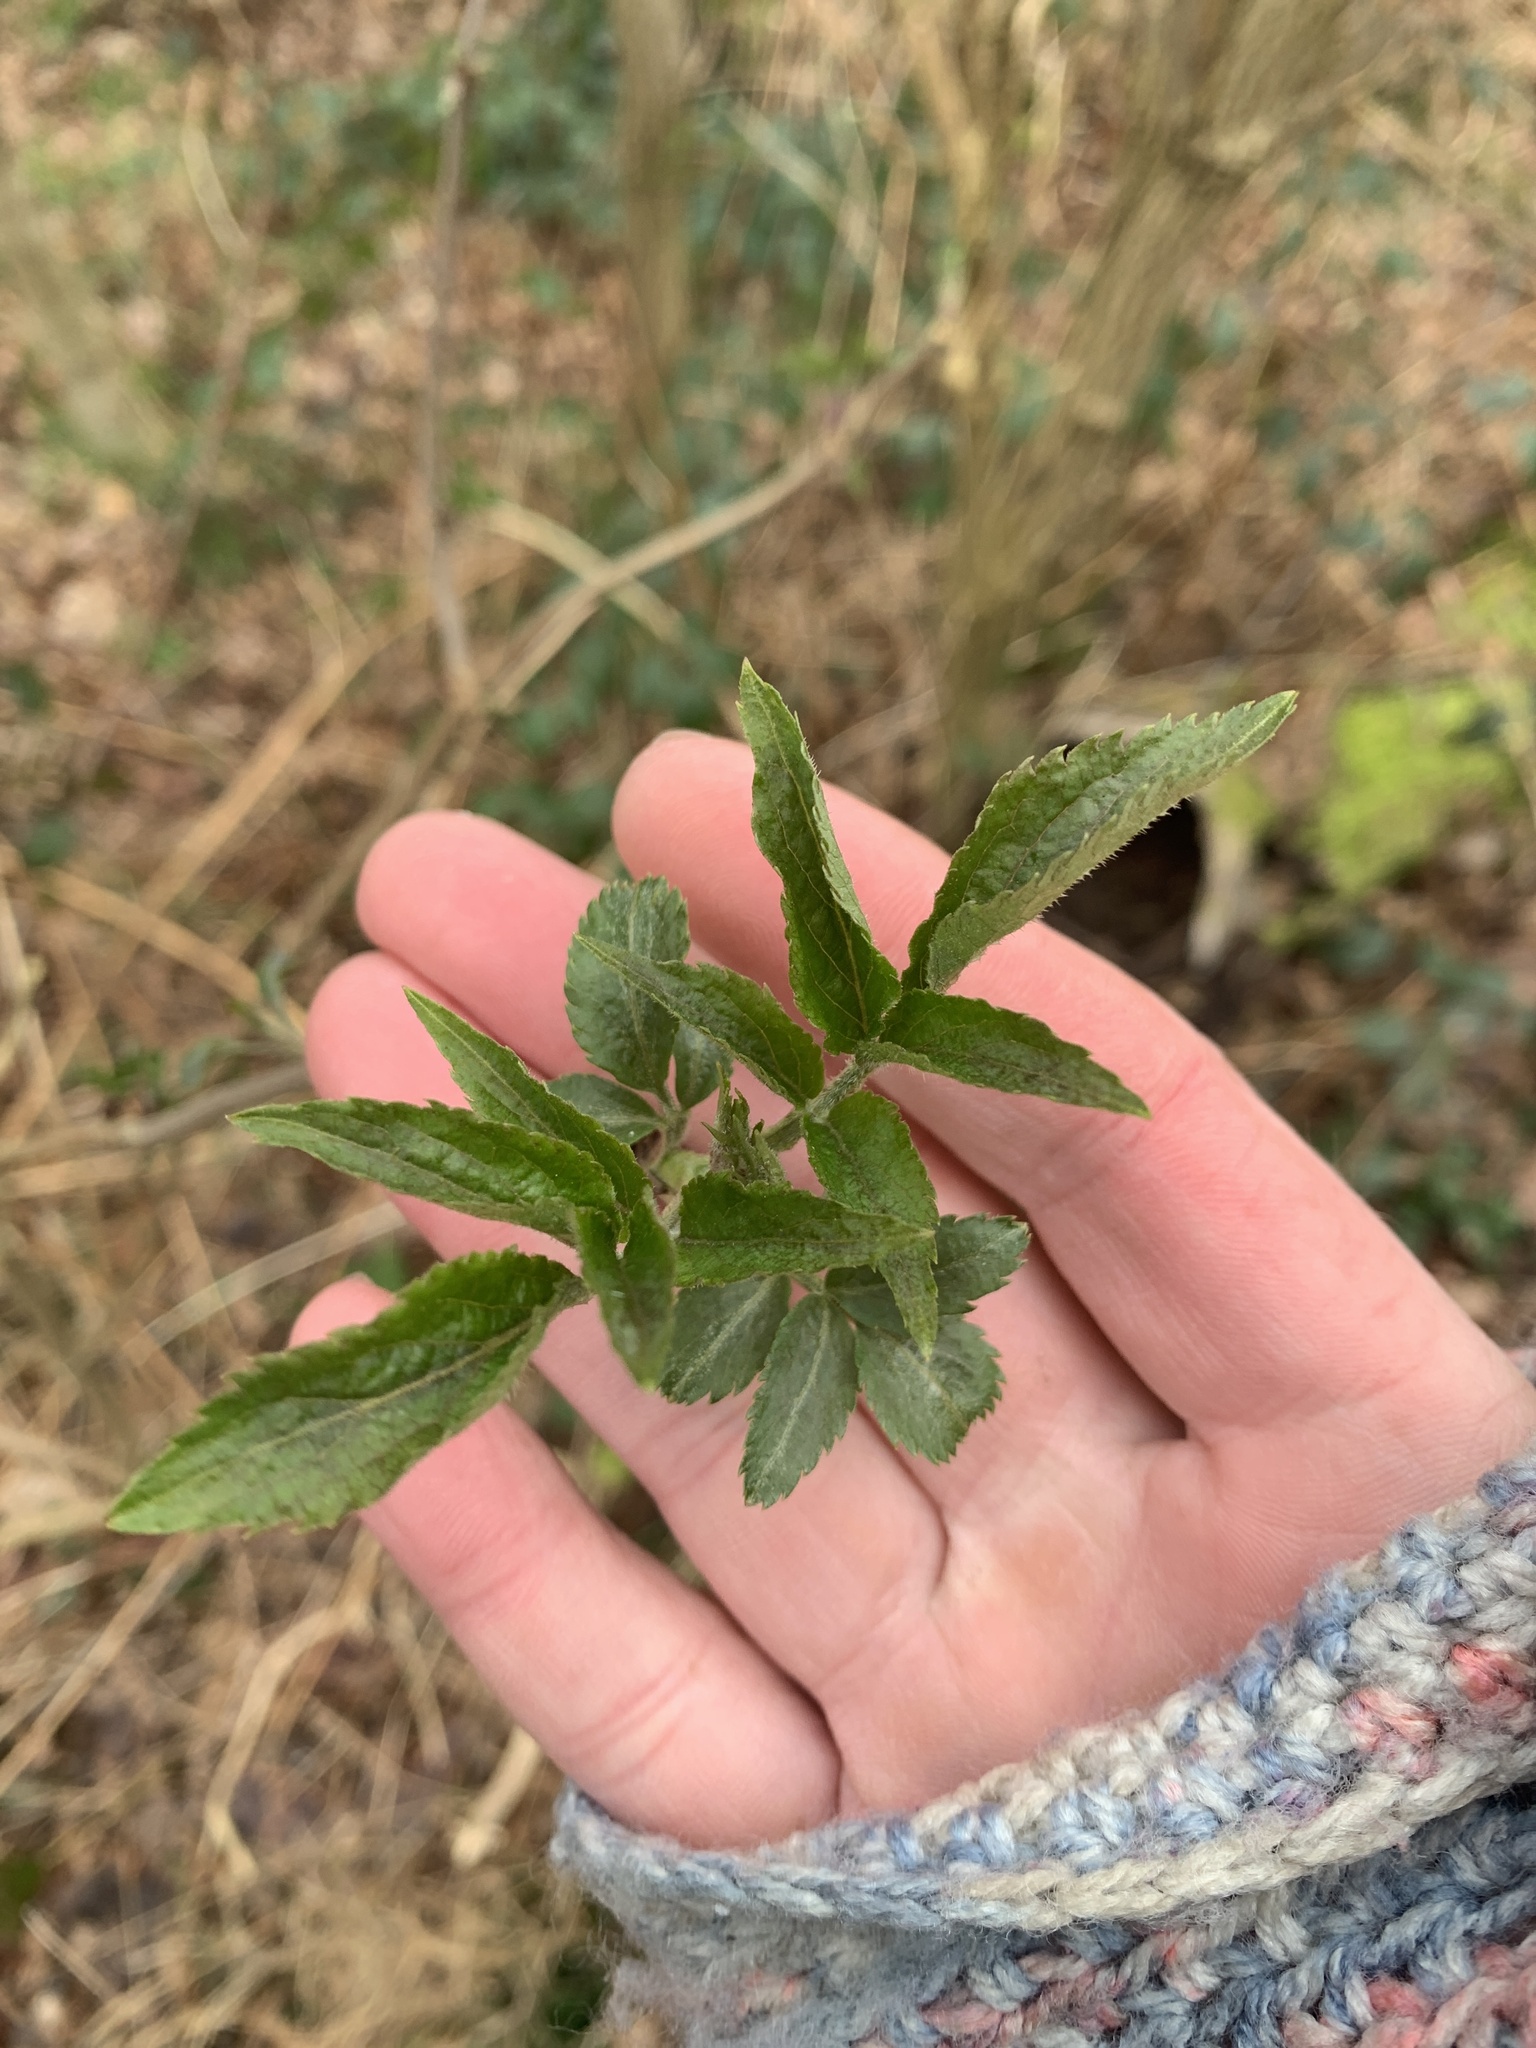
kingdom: Plantae
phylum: Tracheophyta
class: Magnoliopsida
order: Dipsacales
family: Viburnaceae
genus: Sambucus
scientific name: Sambucus nigra
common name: Elder
